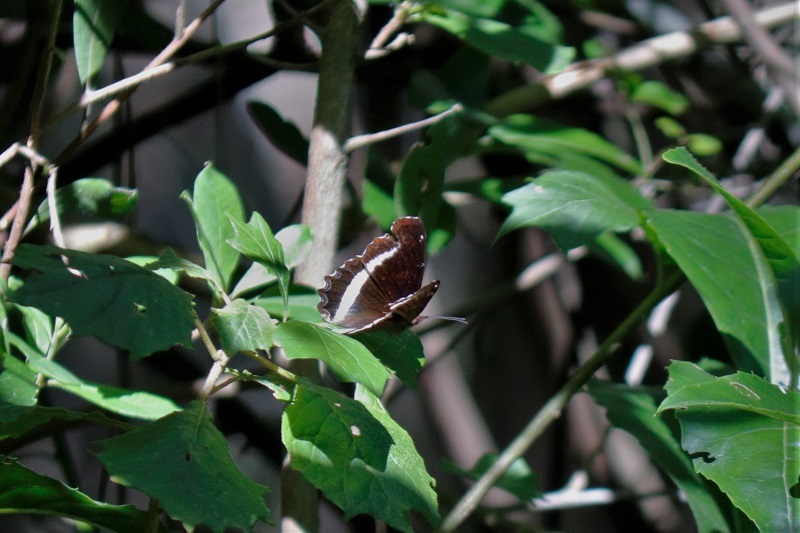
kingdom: Animalia
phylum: Arthropoda
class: Insecta
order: Lepidoptera
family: Nymphalidae
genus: Eurytela
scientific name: Eurytela hiarbas
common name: Pied piper
